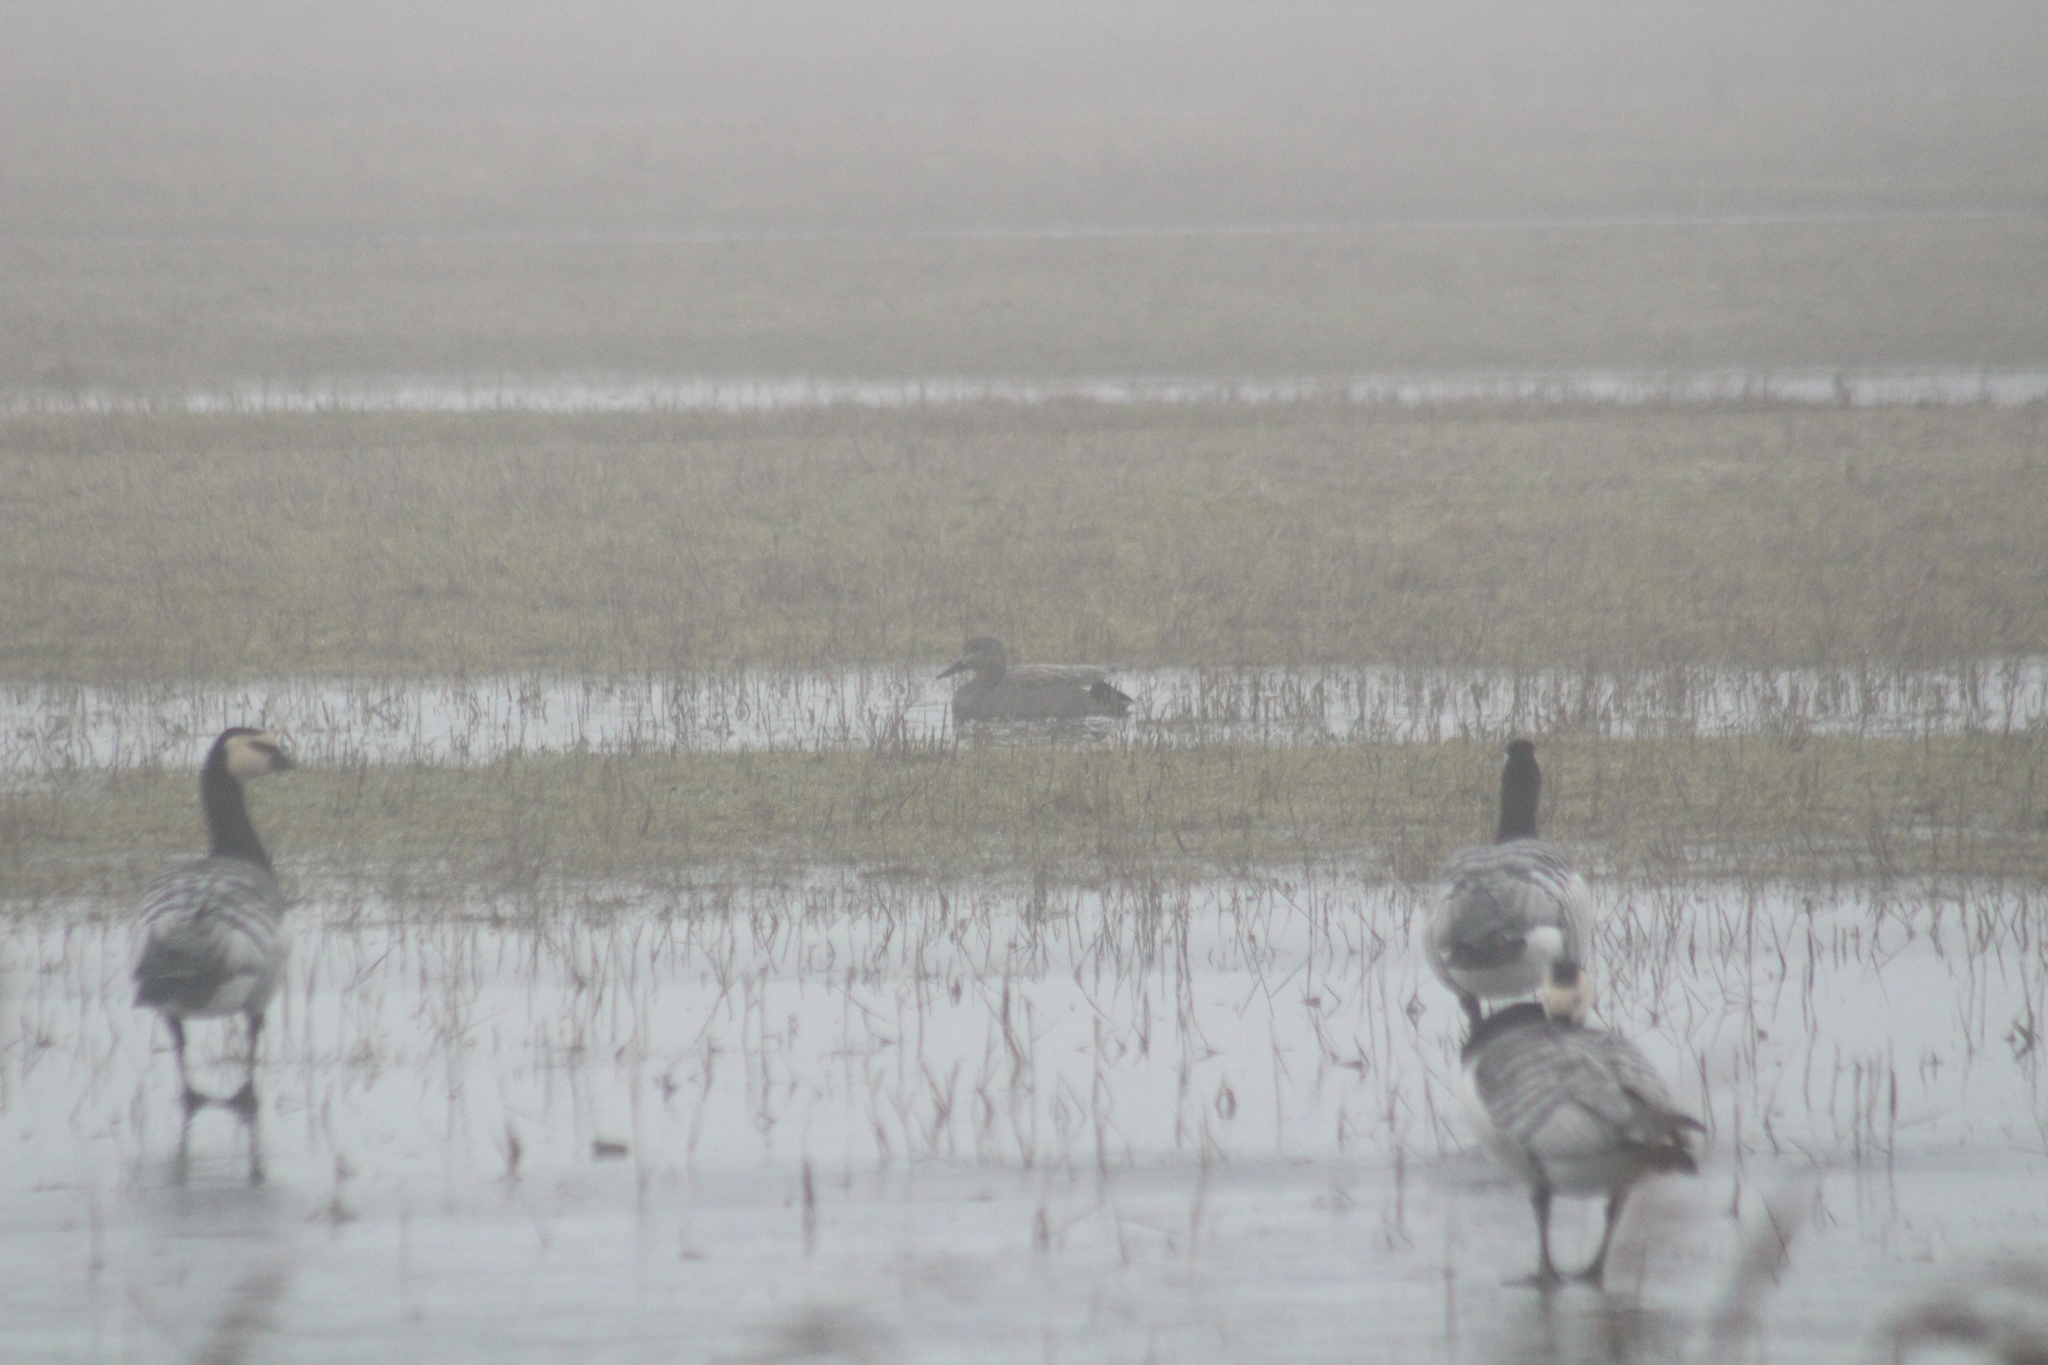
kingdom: Animalia
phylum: Chordata
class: Aves
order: Anseriformes
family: Anatidae
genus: Mareca
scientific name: Mareca strepera
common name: Gadwall
